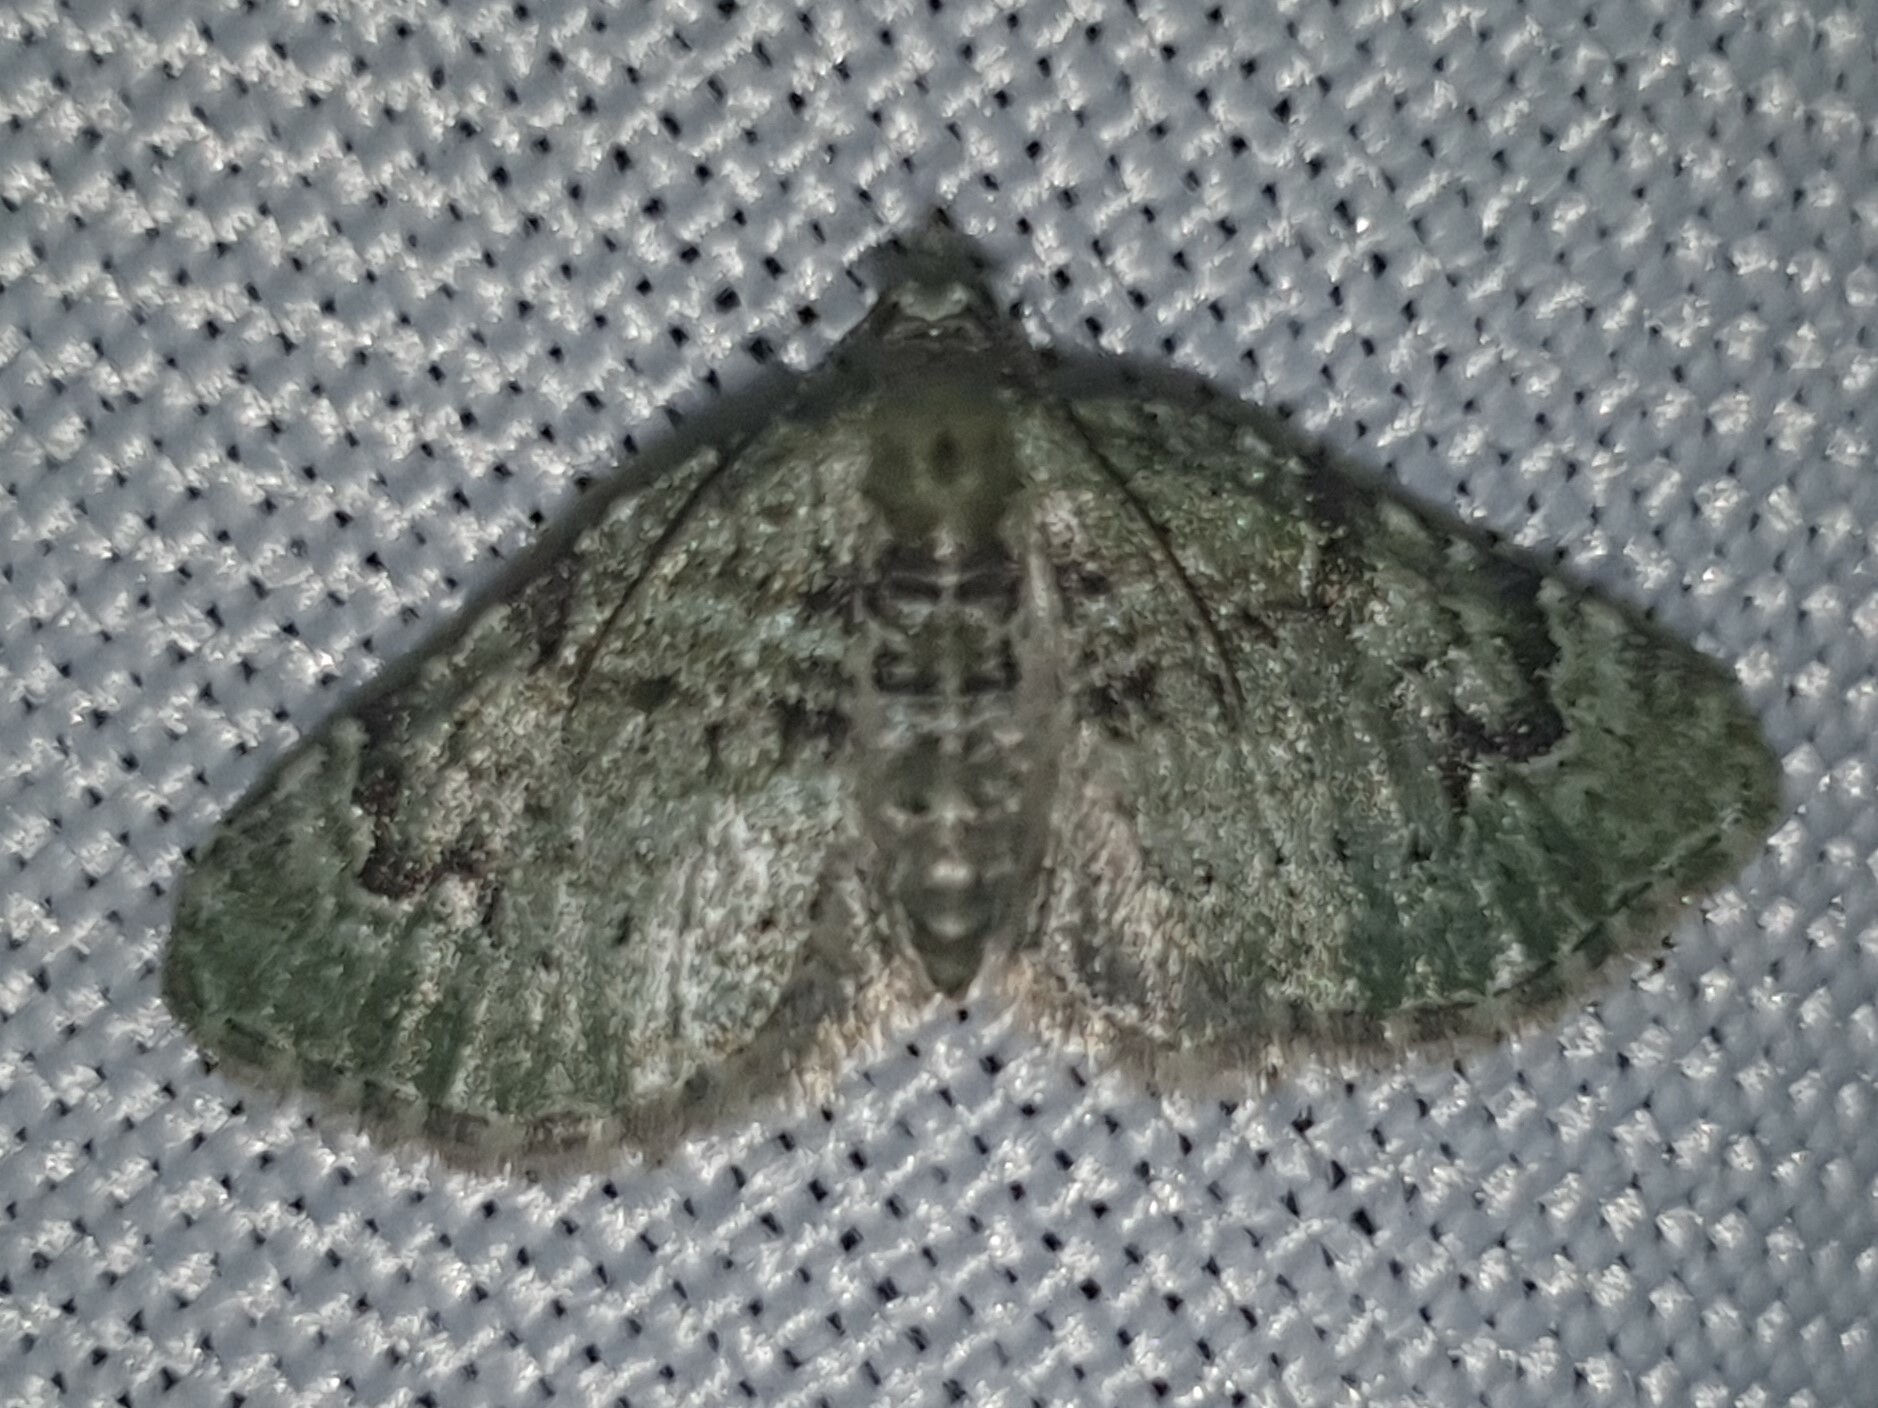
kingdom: Animalia
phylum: Arthropoda
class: Insecta
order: Lepidoptera
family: Geometridae
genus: Chloroclystis
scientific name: Chloroclystis v-ata
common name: V-pug
